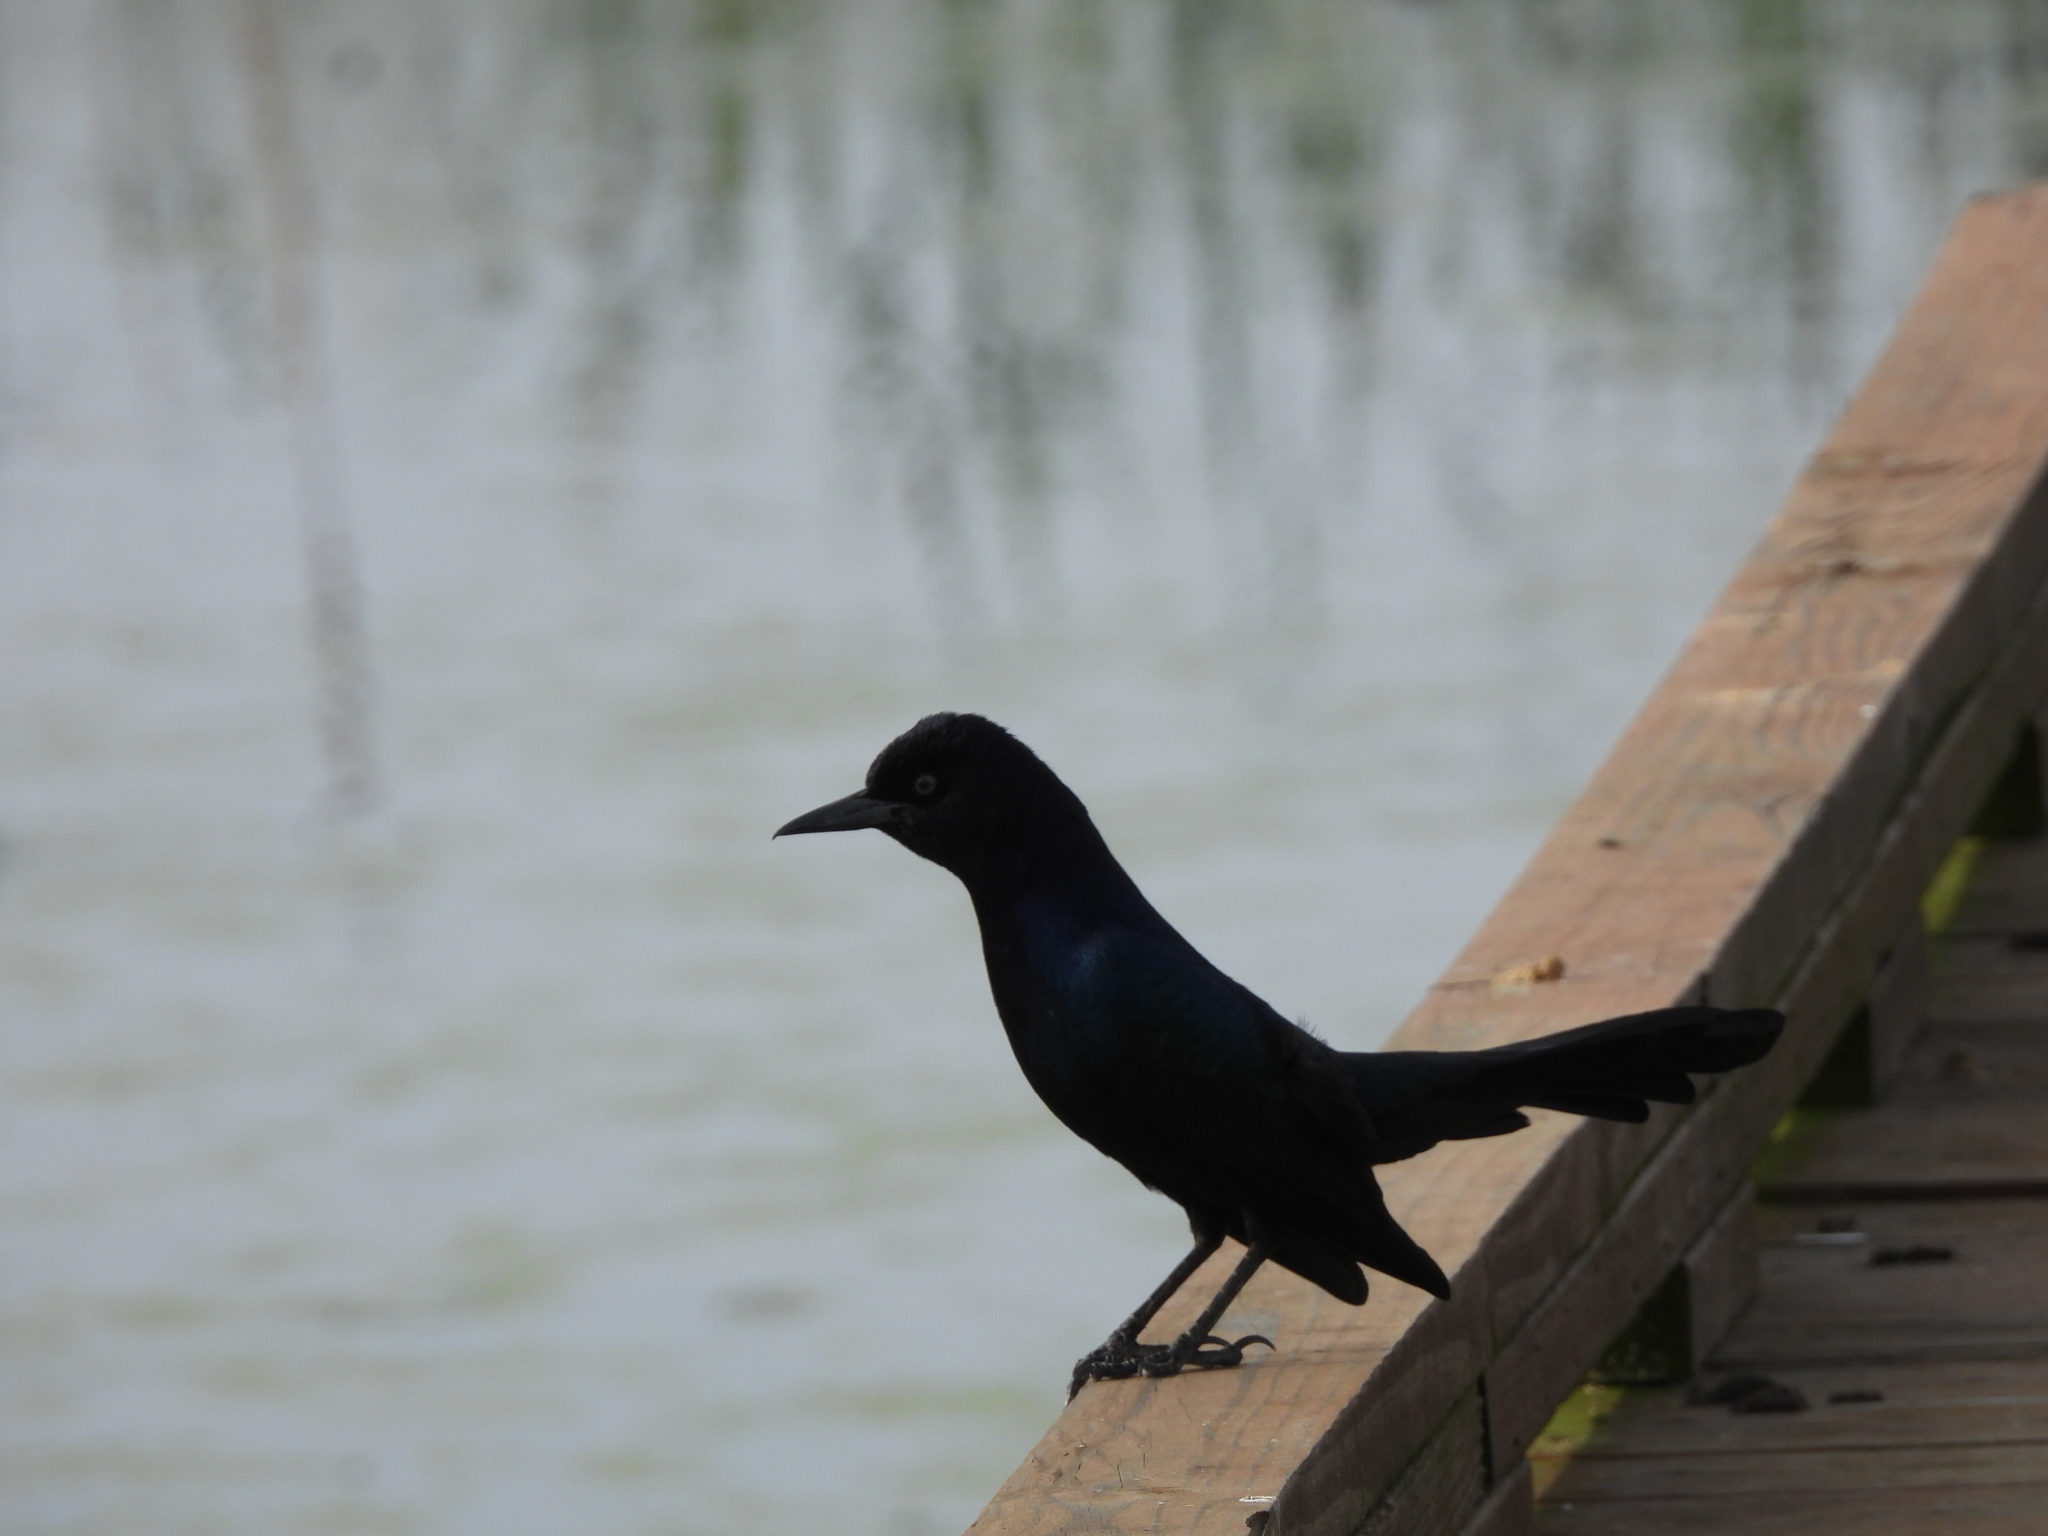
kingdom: Animalia
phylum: Chordata
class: Aves
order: Passeriformes
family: Icteridae
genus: Quiscalus
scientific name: Quiscalus major
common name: Boat-tailed grackle
